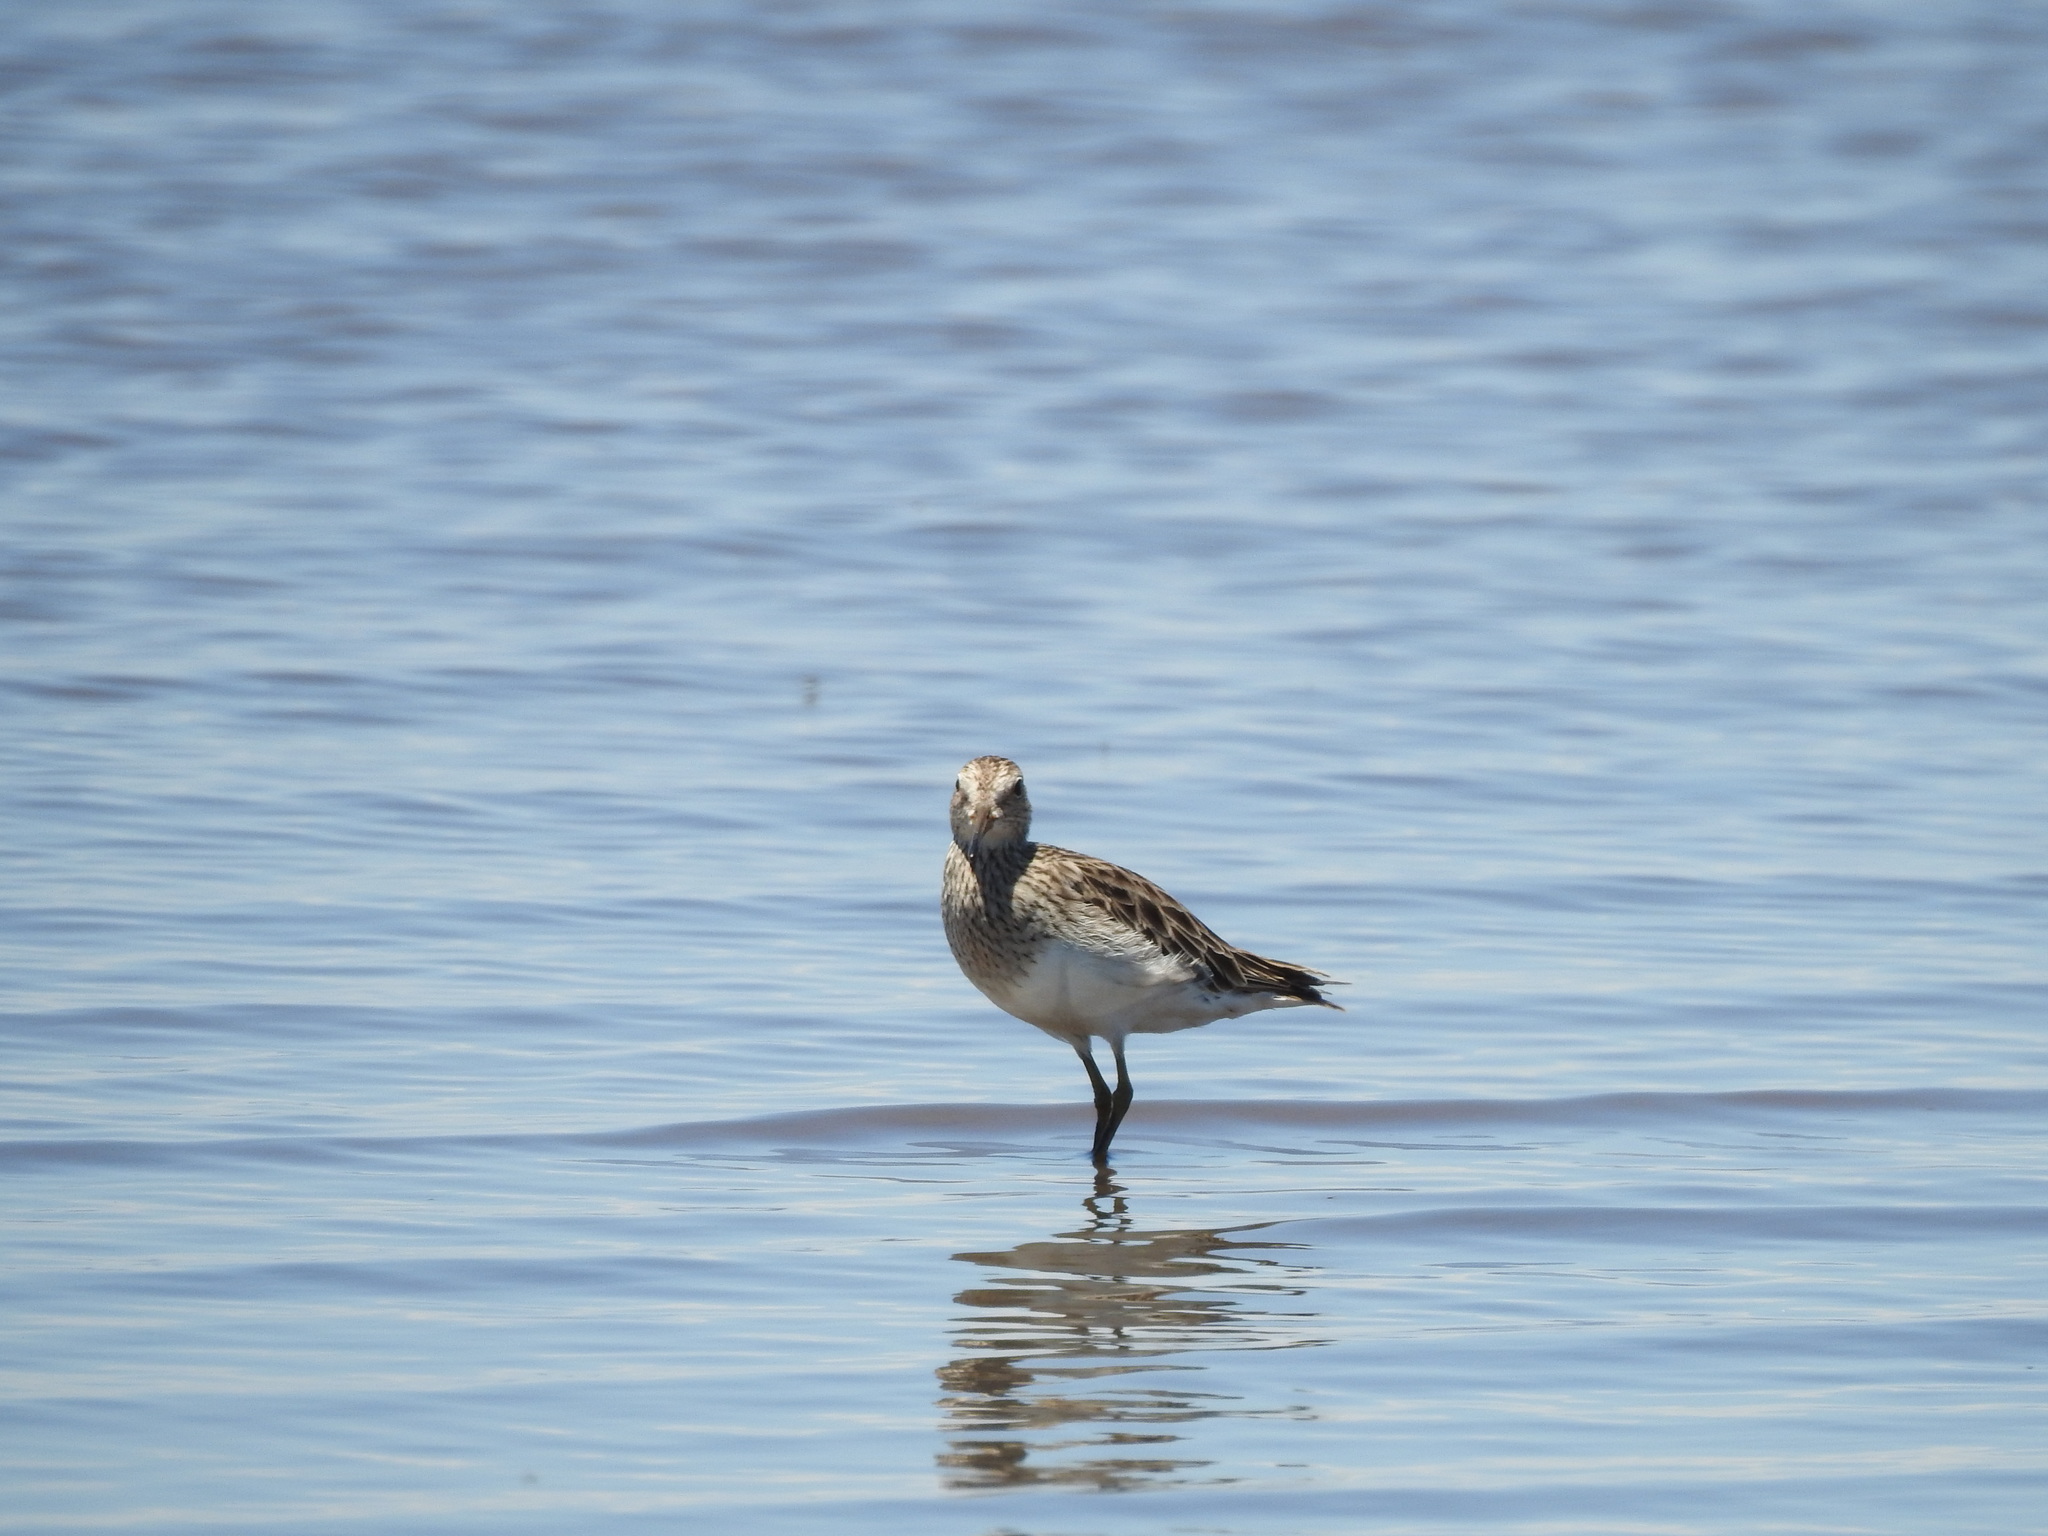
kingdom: Animalia
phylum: Chordata
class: Aves
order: Charadriiformes
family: Scolopacidae
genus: Calidris
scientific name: Calidris melanotos
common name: Pectoral sandpiper
